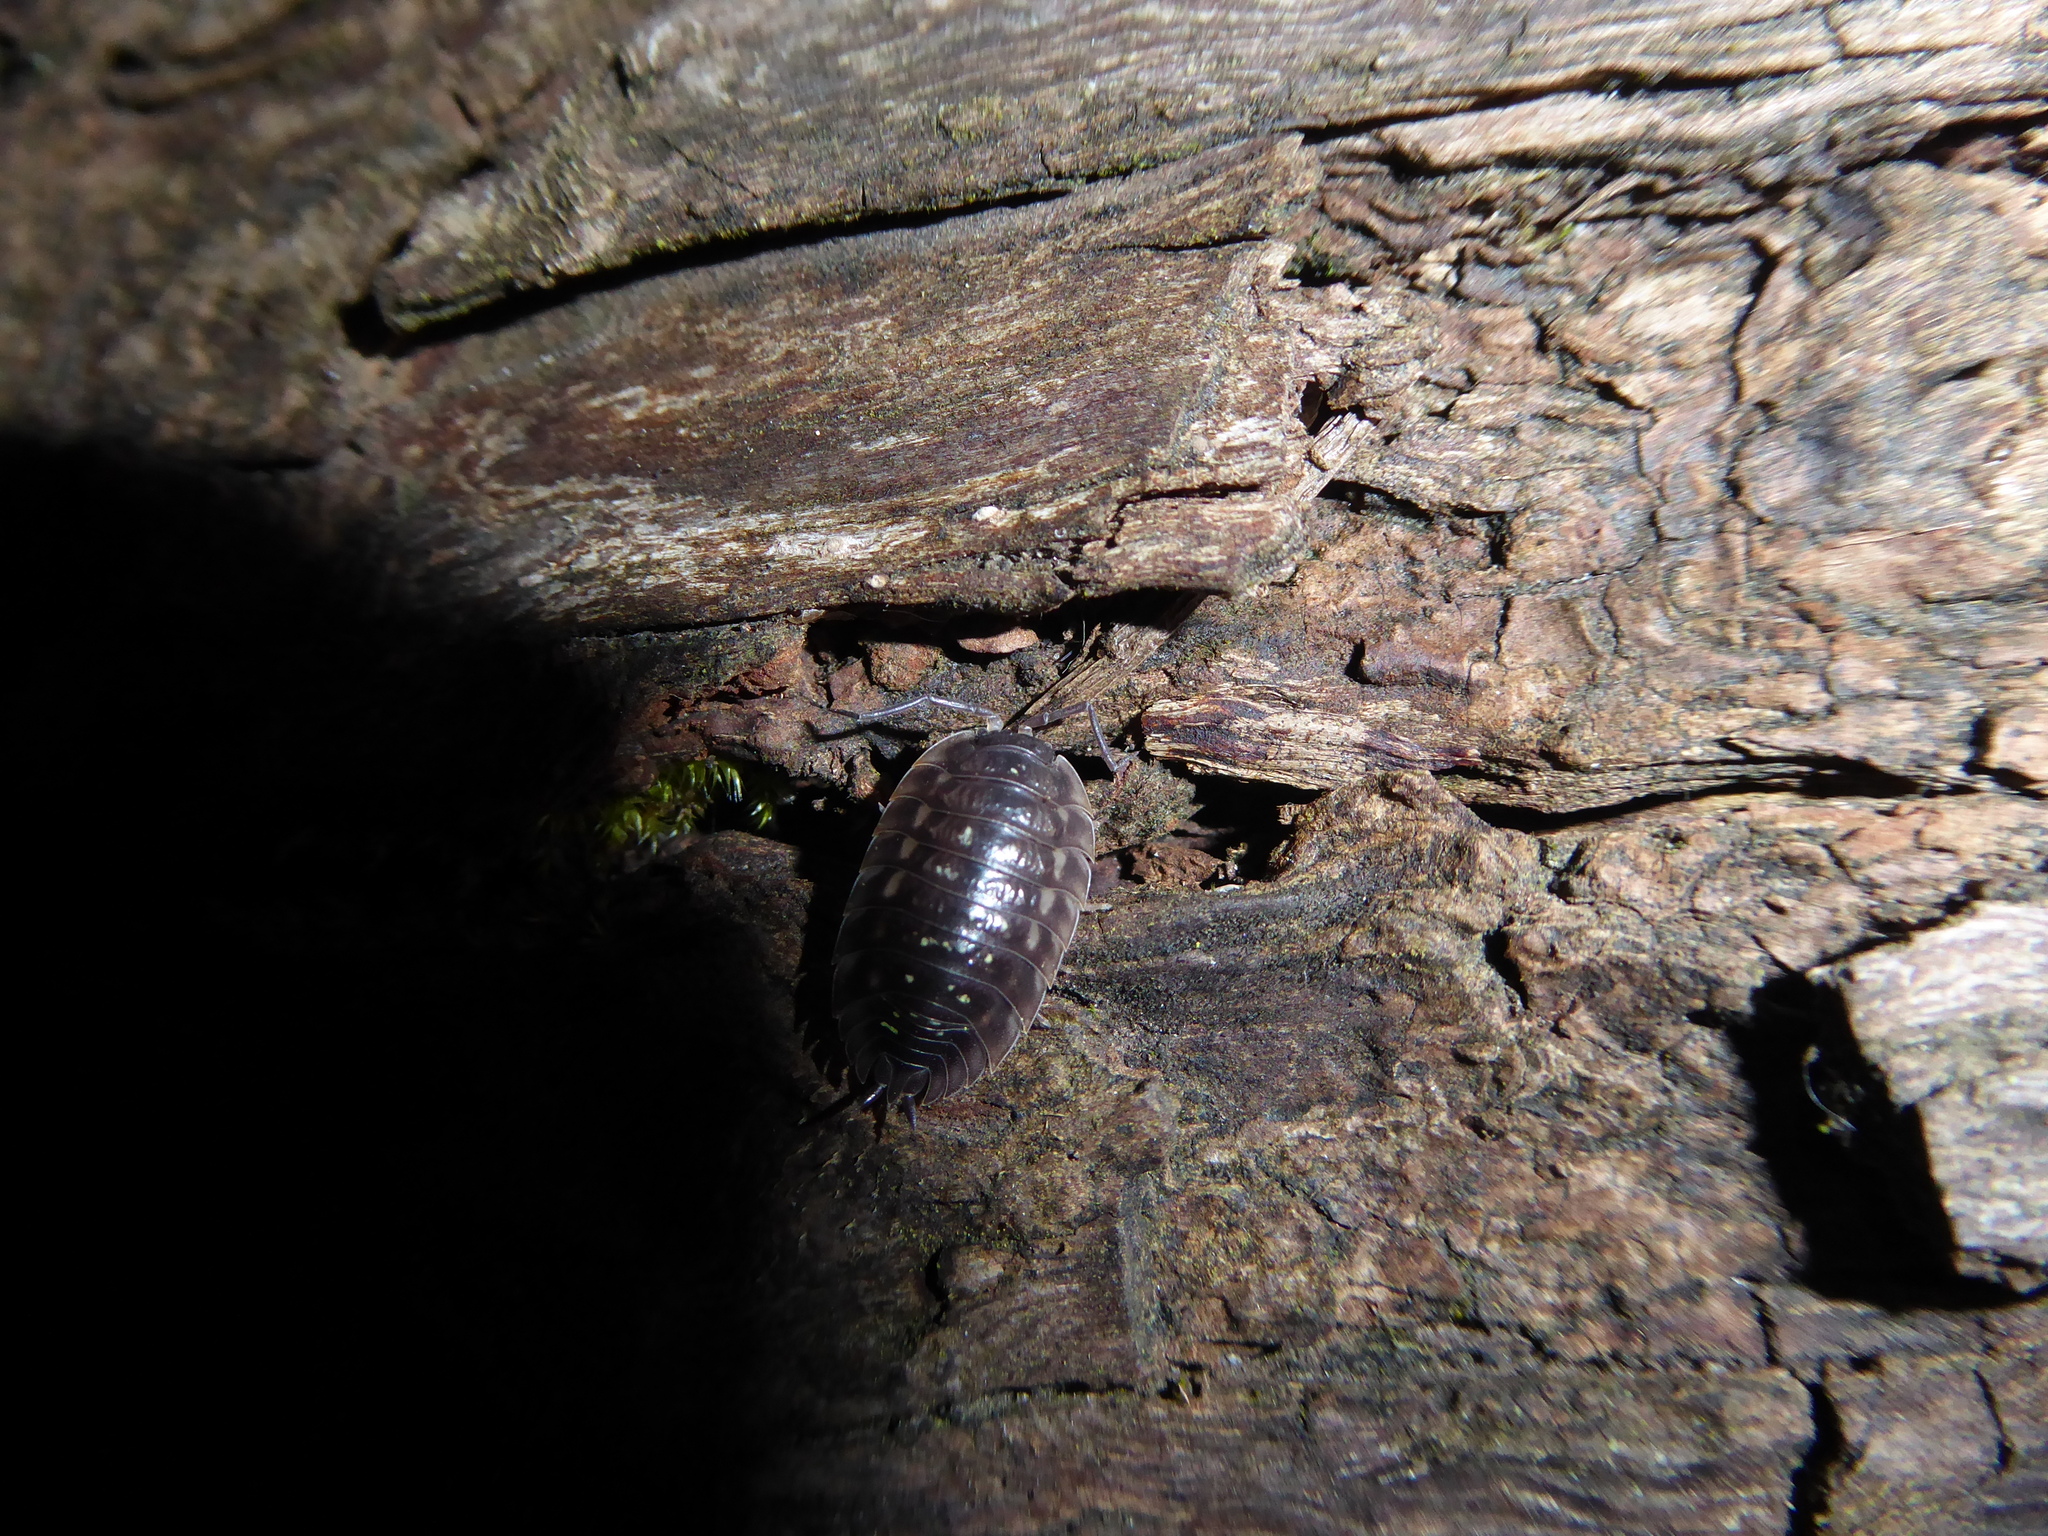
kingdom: Animalia
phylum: Arthropoda
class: Malacostraca
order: Isopoda
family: Oniscidae
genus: Oniscus
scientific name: Oniscus asellus
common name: Common shiny woodlouse
